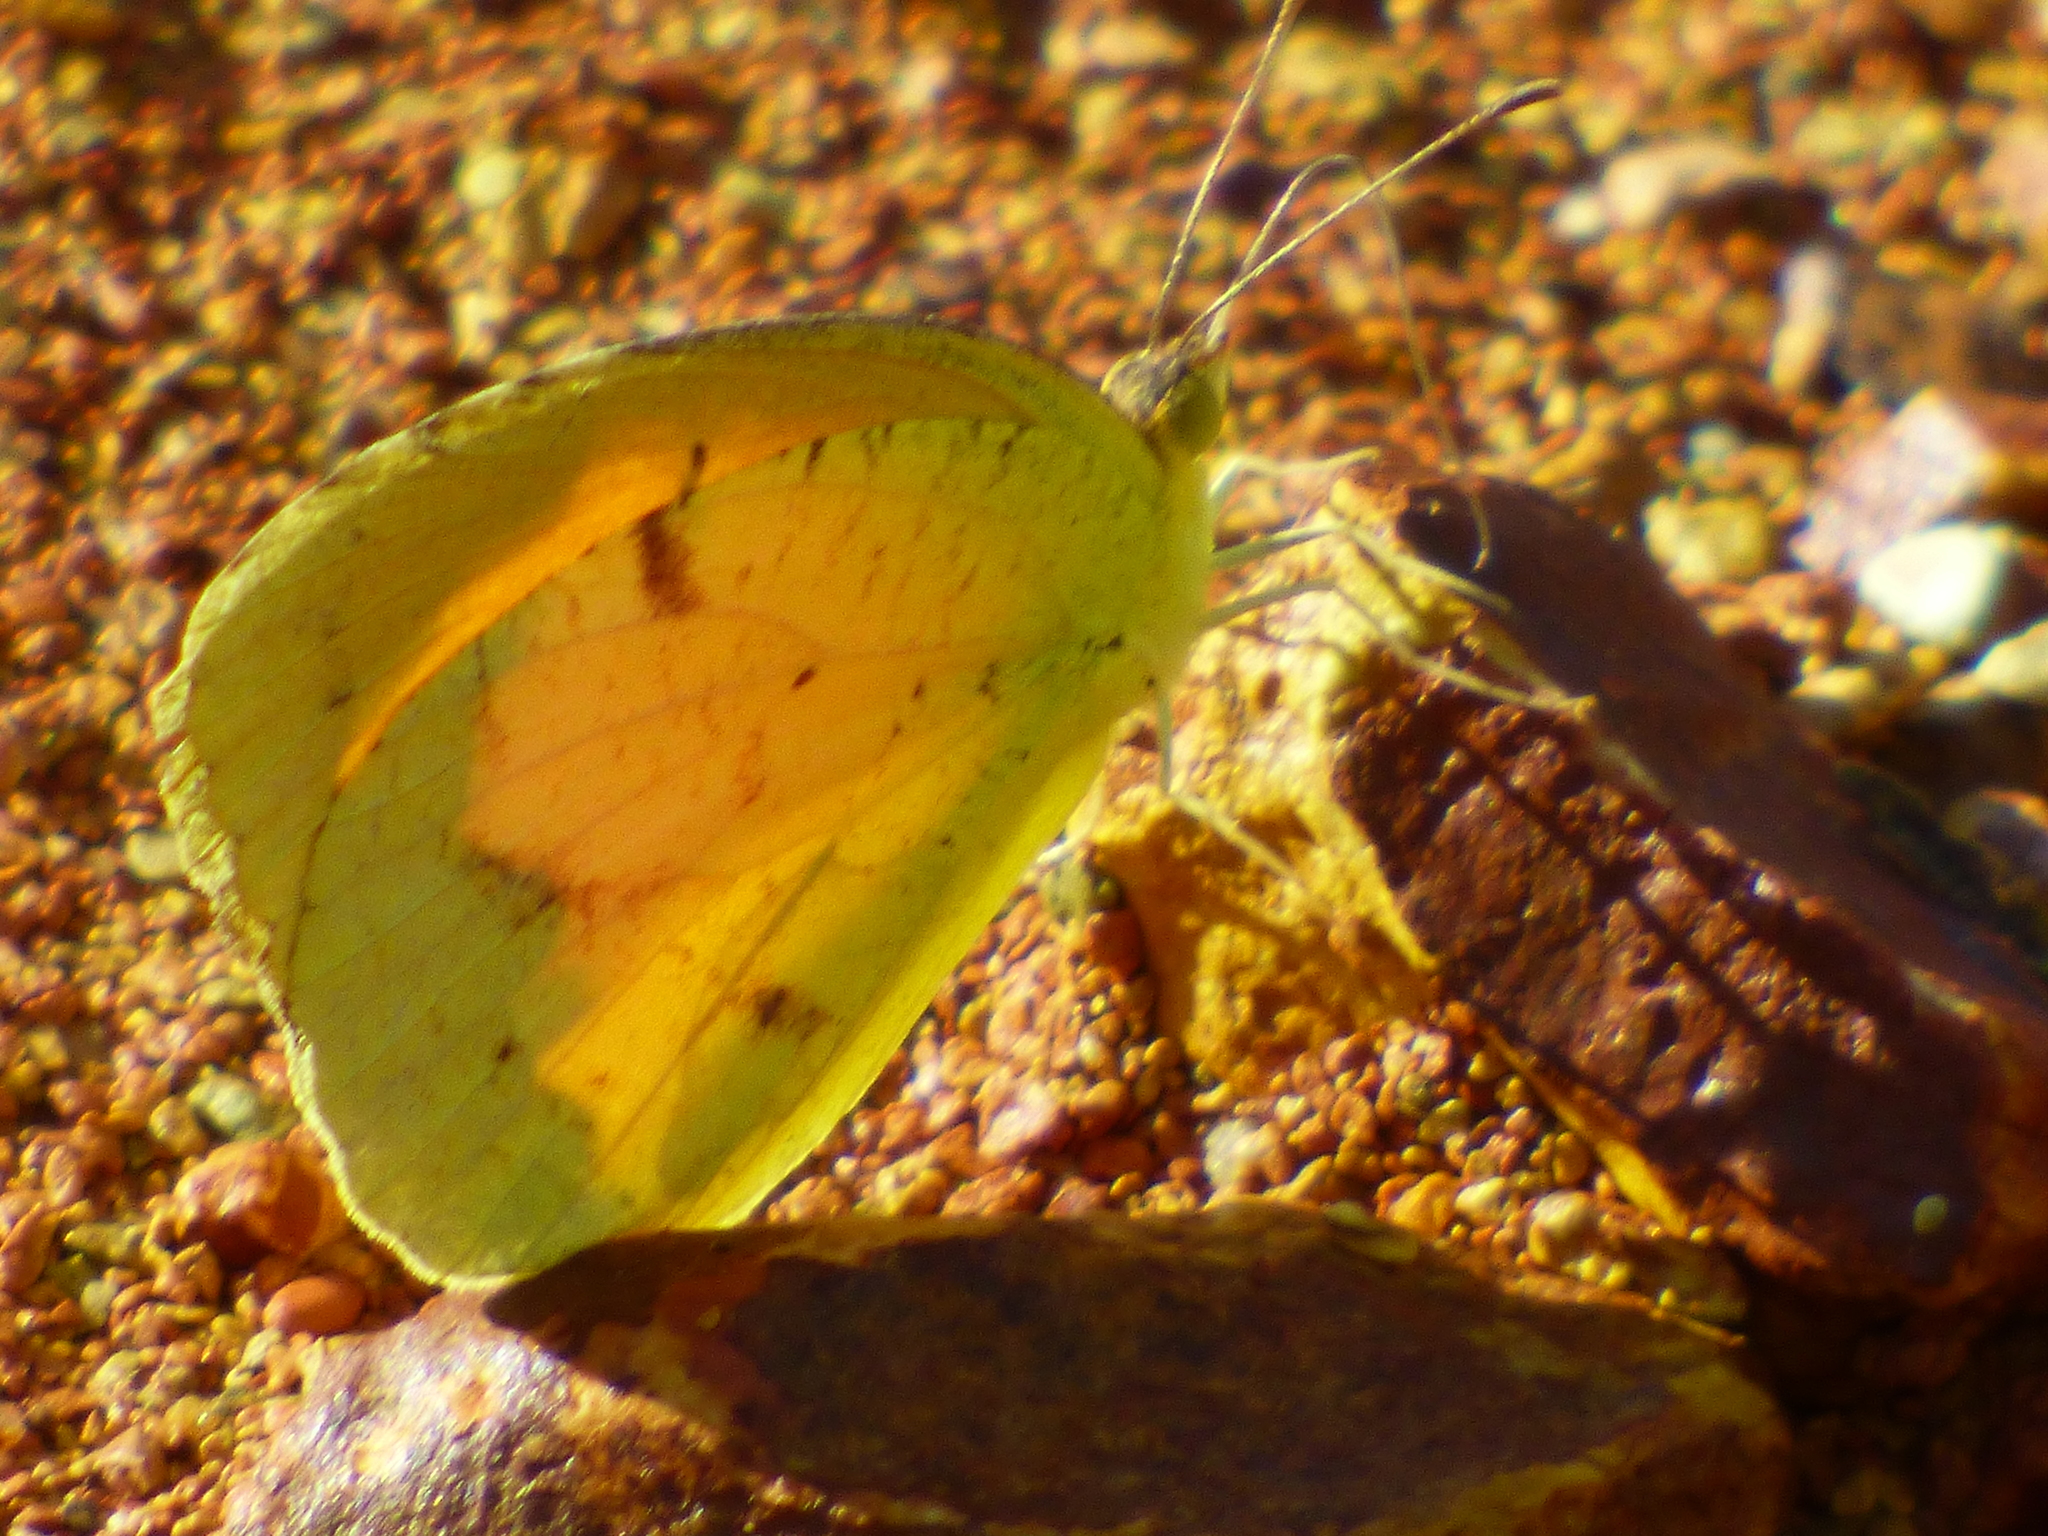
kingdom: Animalia
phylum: Arthropoda
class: Insecta
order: Lepidoptera
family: Pieridae
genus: Abaeis
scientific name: Abaeis nicippe
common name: Sleepy orange
